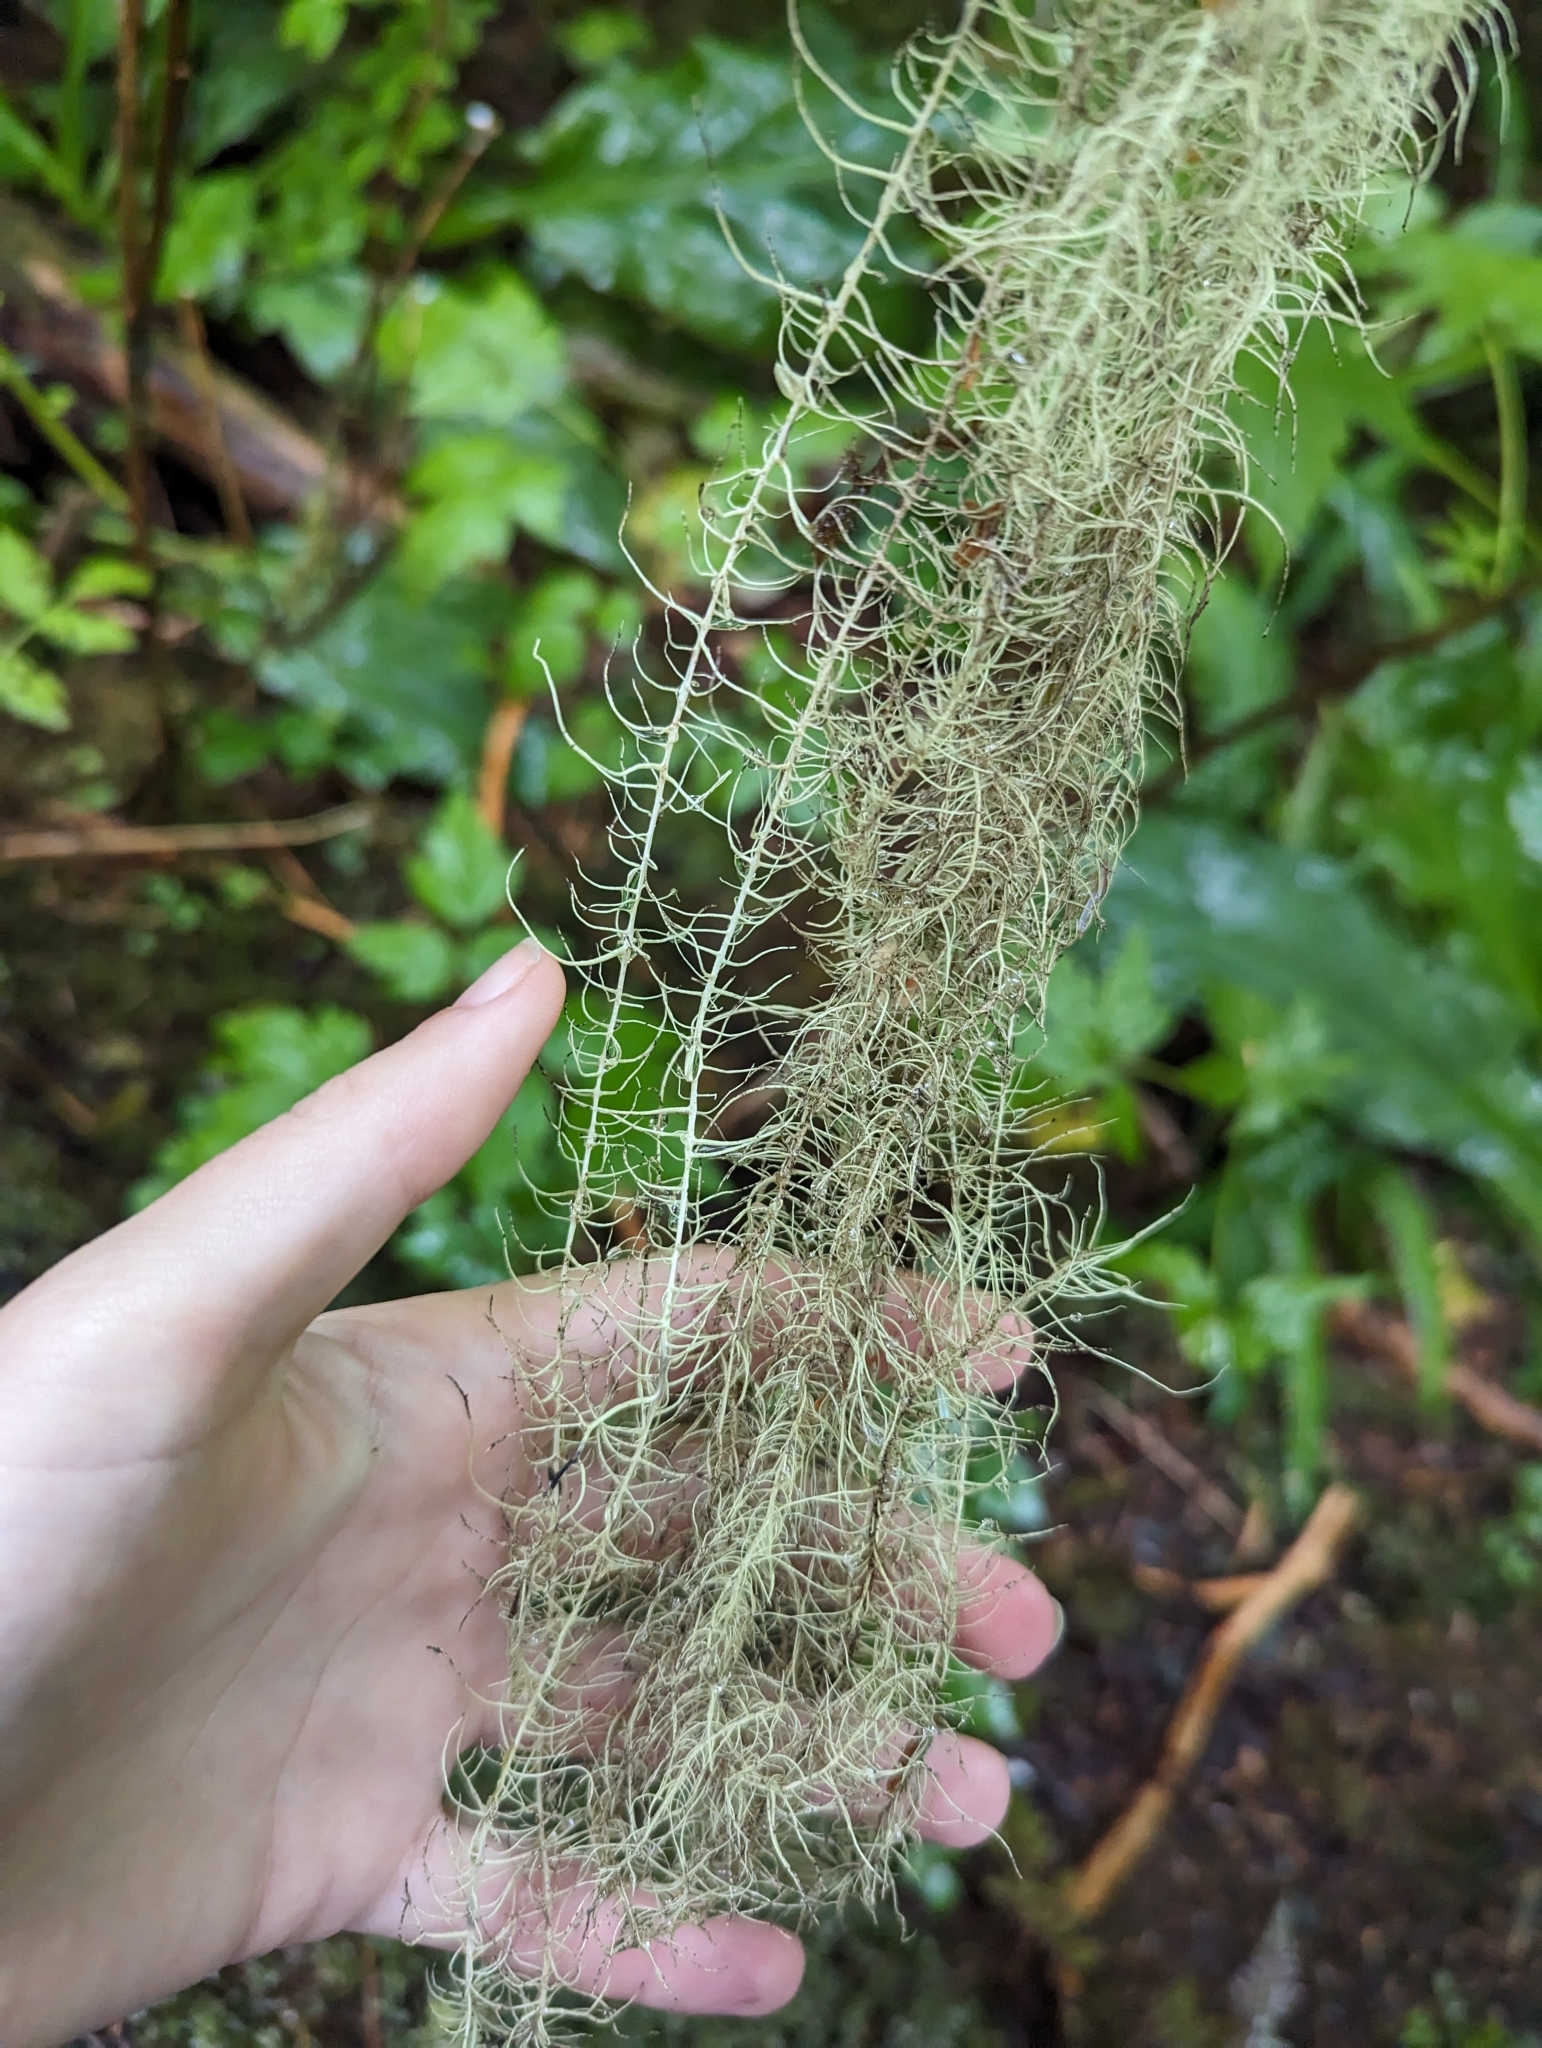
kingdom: Fungi
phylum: Ascomycota
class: Lecanoromycetes
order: Lecanorales
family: Parmeliaceae
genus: Dolichousnea
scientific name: Dolichousnea longissima
